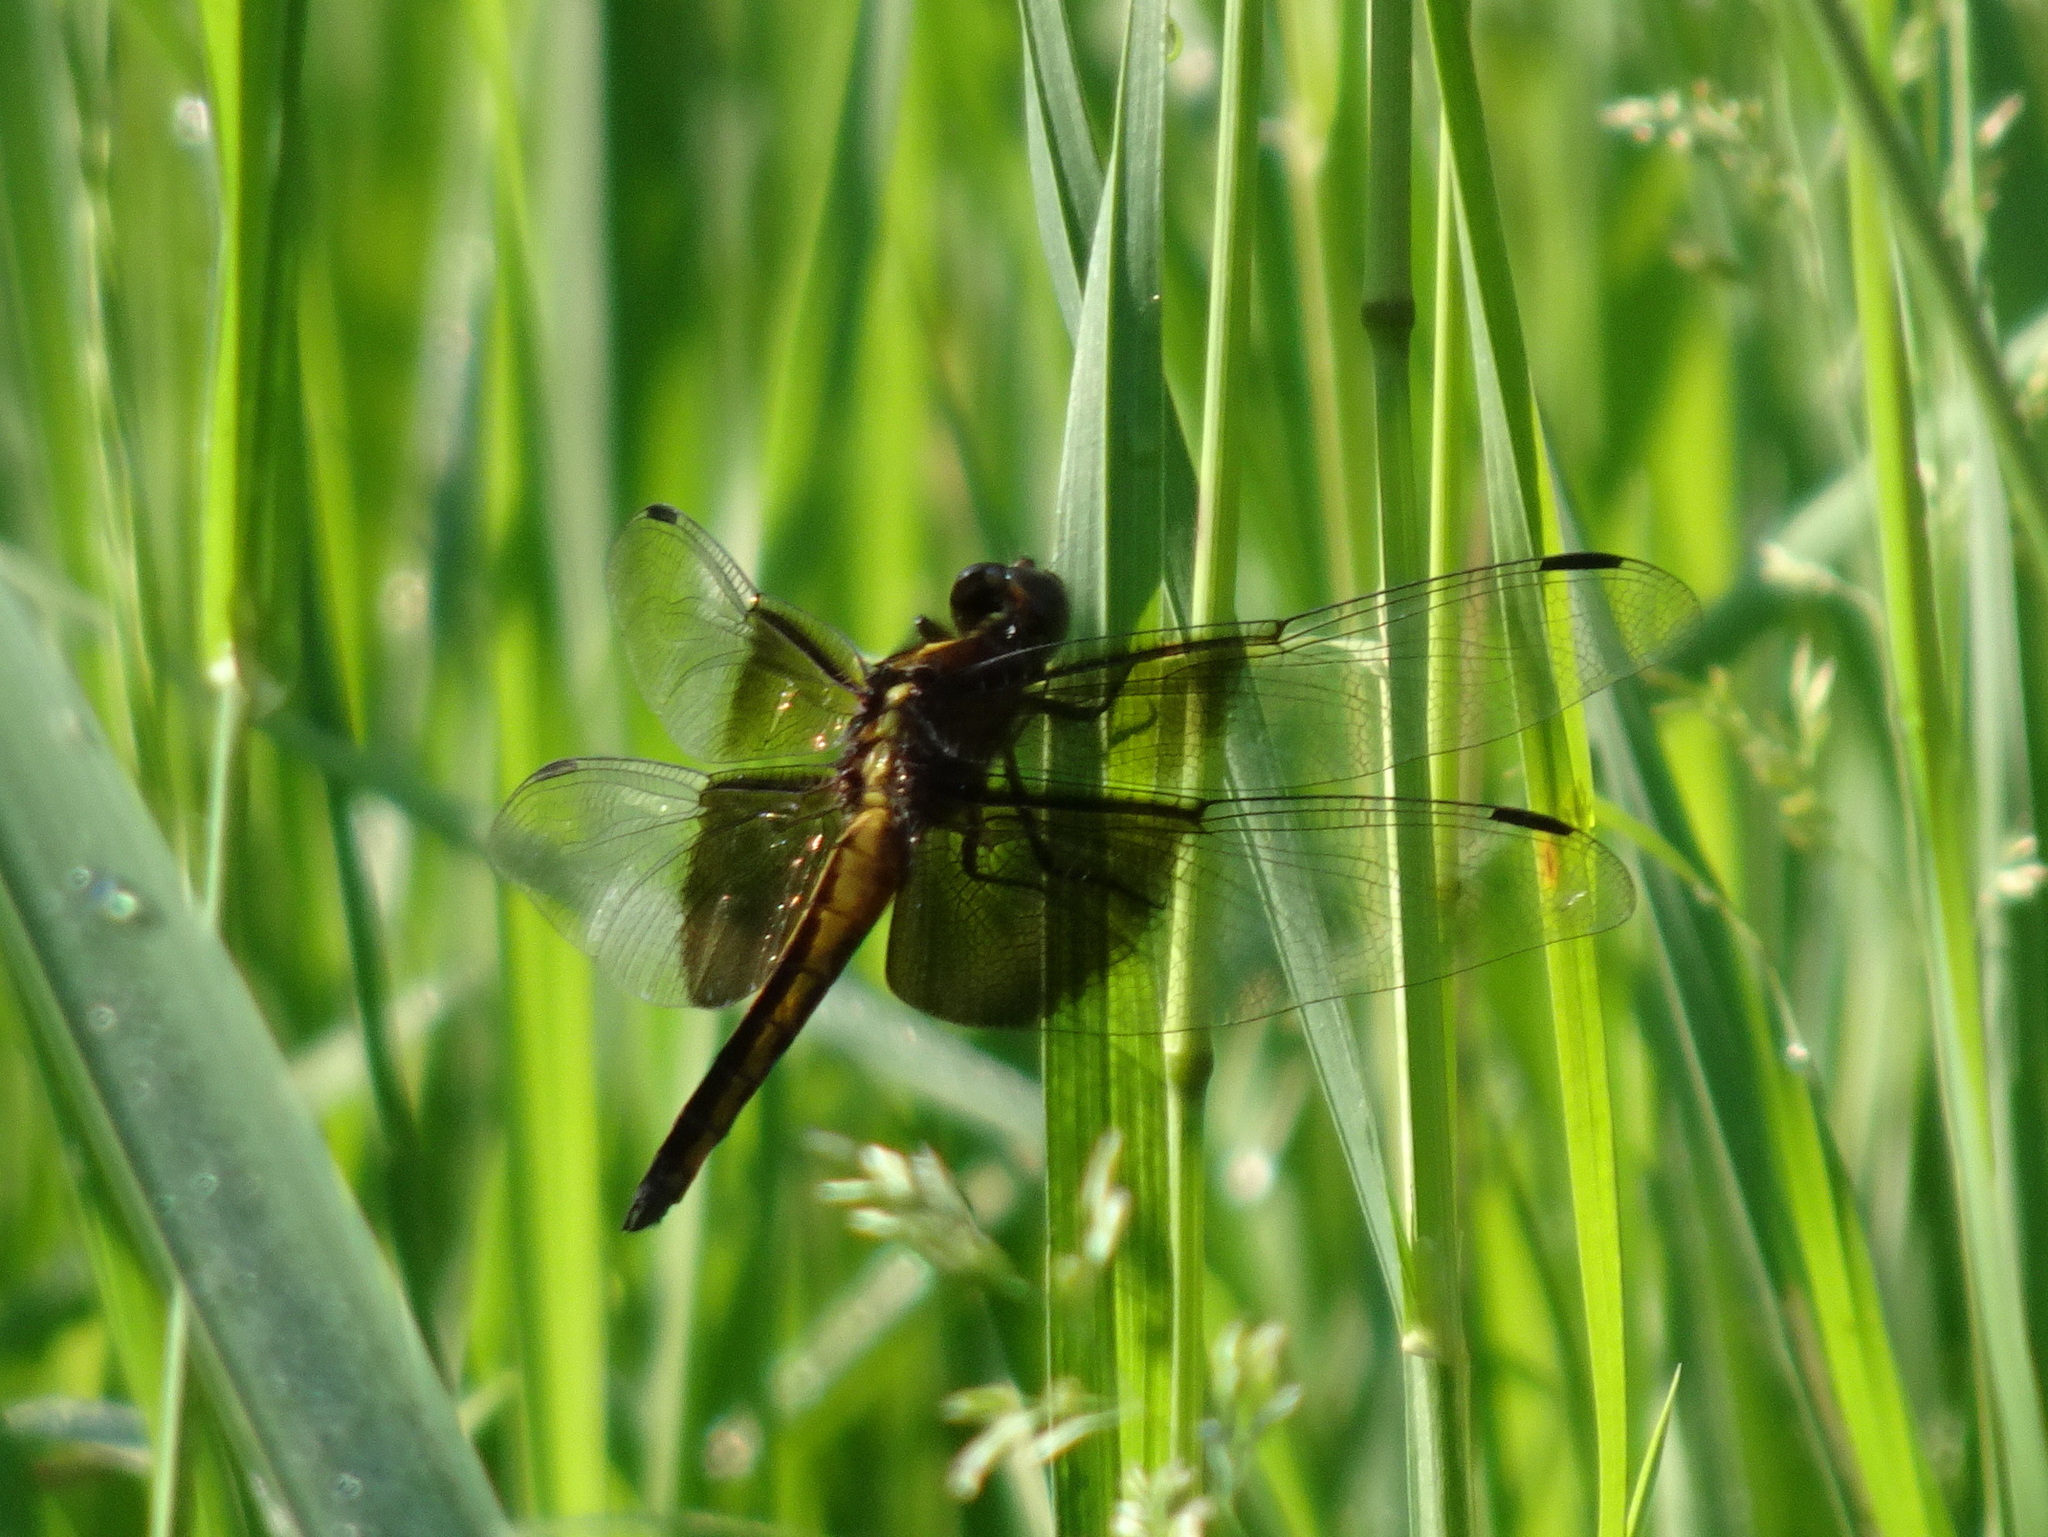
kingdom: Animalia
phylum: Arthropoda
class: Insecta
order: Odonata
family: Libellulidae
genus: Libellula
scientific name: Libellula luctuosa
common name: Widow skimmer
